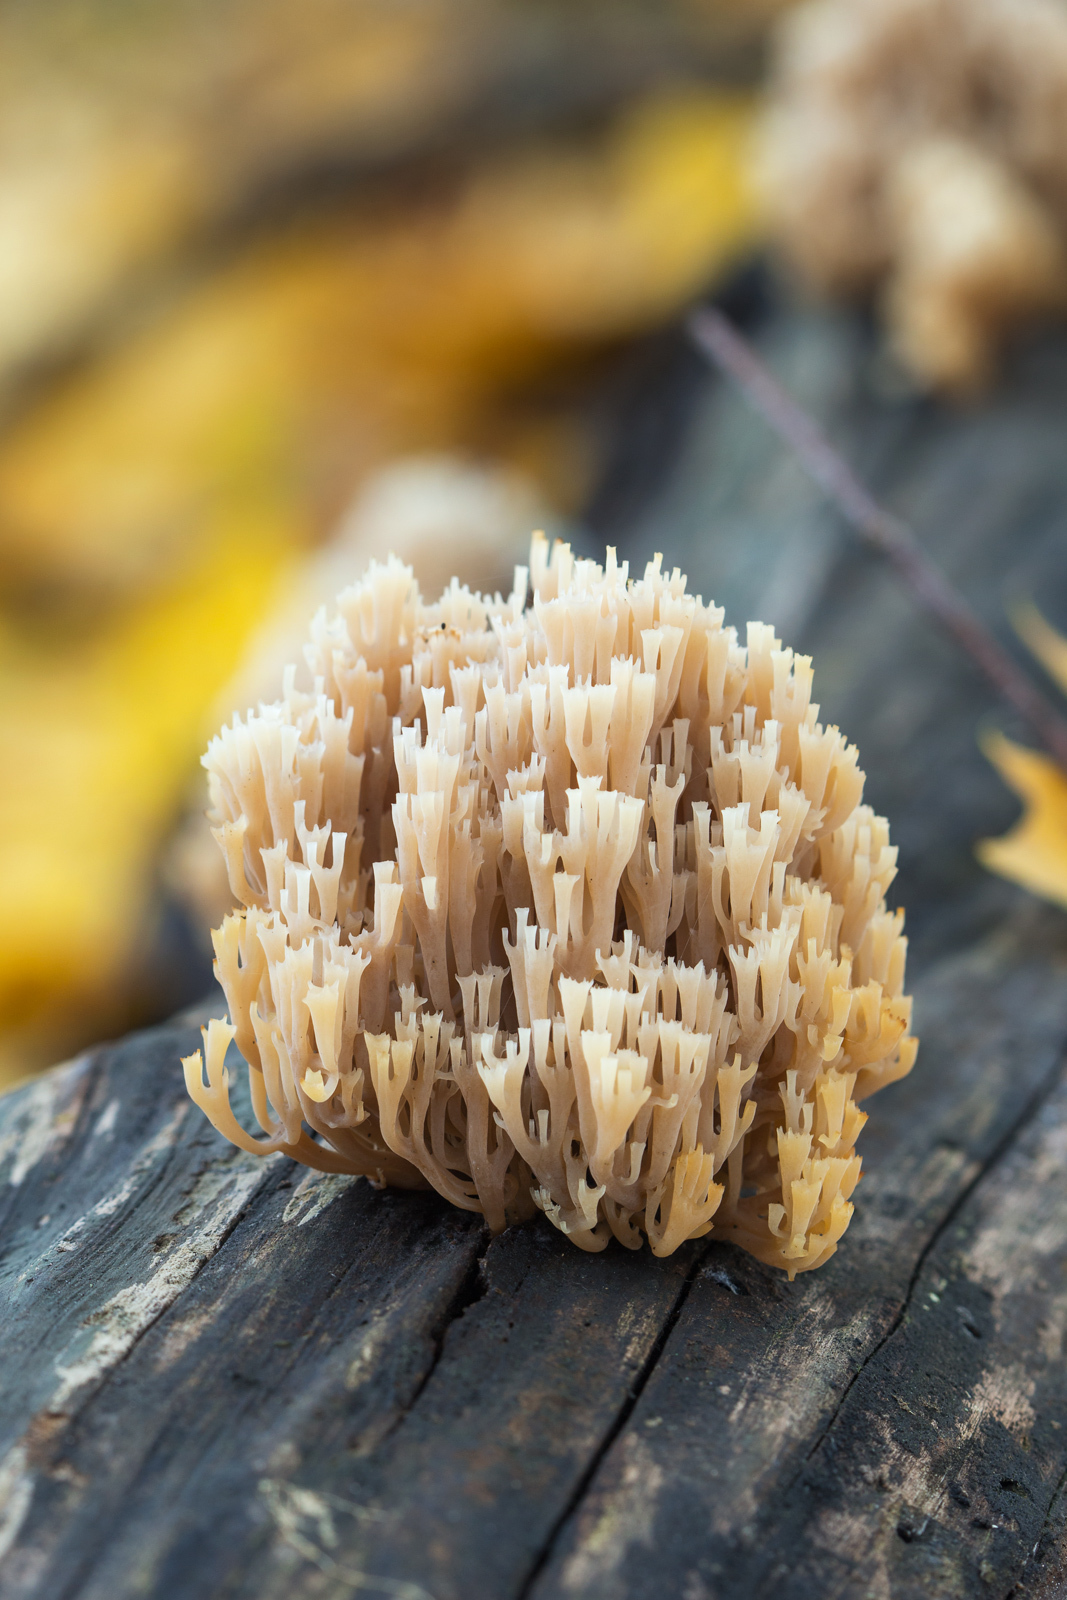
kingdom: Fungi
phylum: Basidiomycota
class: Agaricomycetes
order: Russulales
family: Auriscalpiaceae
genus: Artomyces
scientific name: Artomyces pyxidatus
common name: Crown-tipped coral fungus
